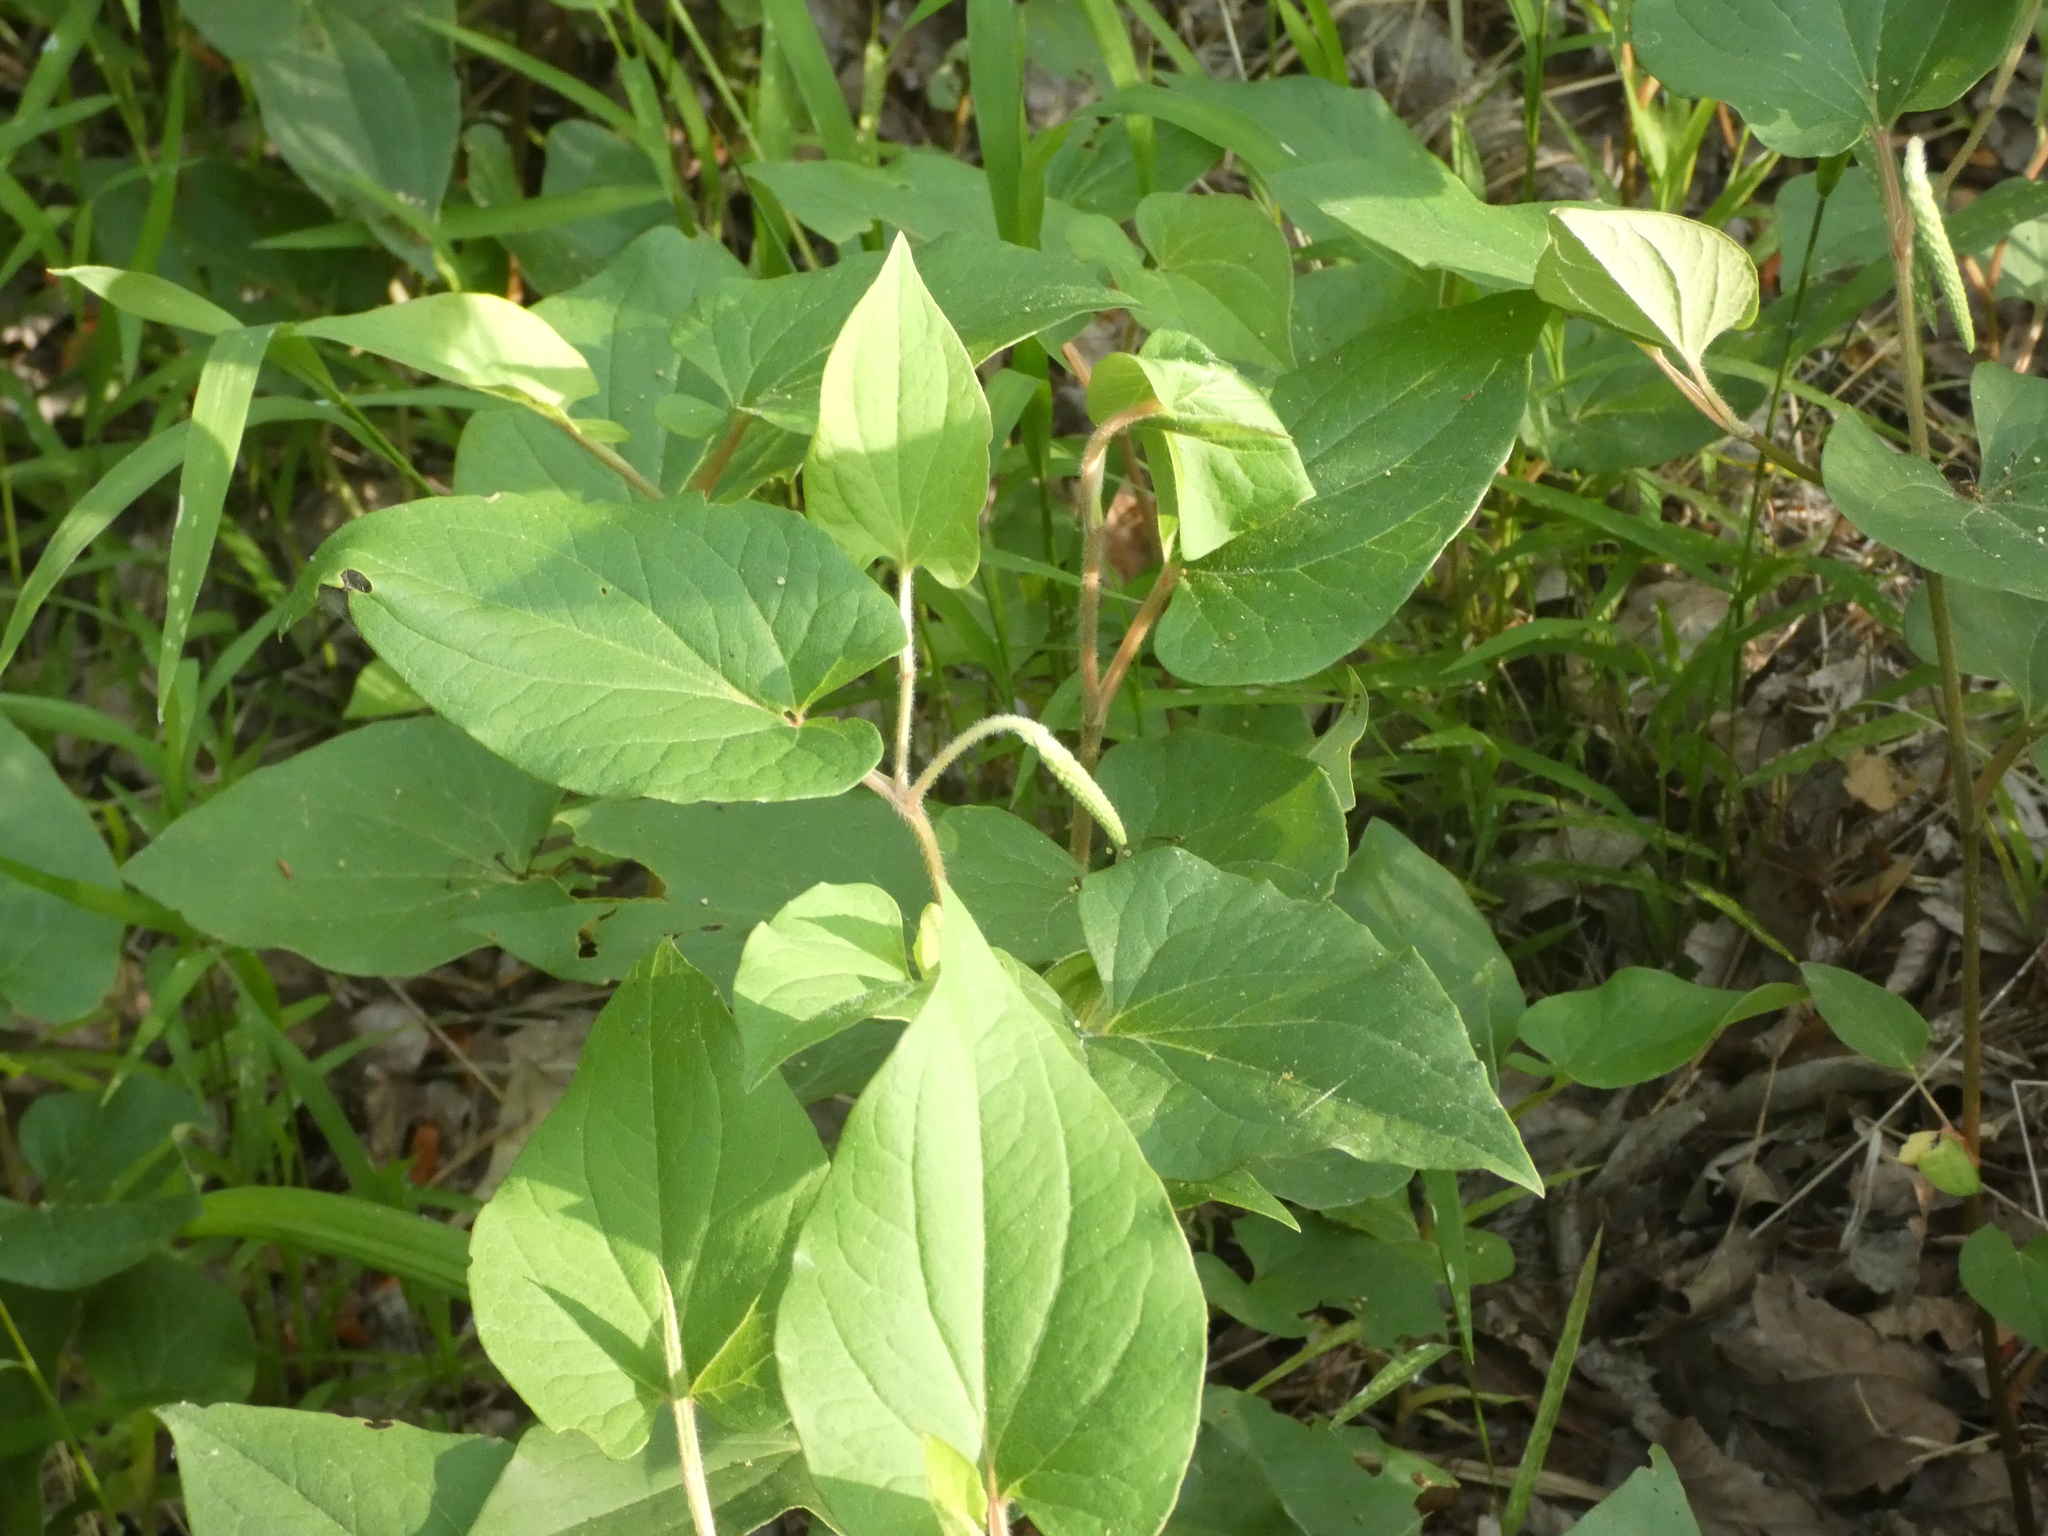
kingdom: Plantae
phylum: Tracheophyta
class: Magnoliopsida
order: Piperales
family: Saururaceae
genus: Saururus
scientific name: Saururus cernuus
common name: Lizard's-tail
